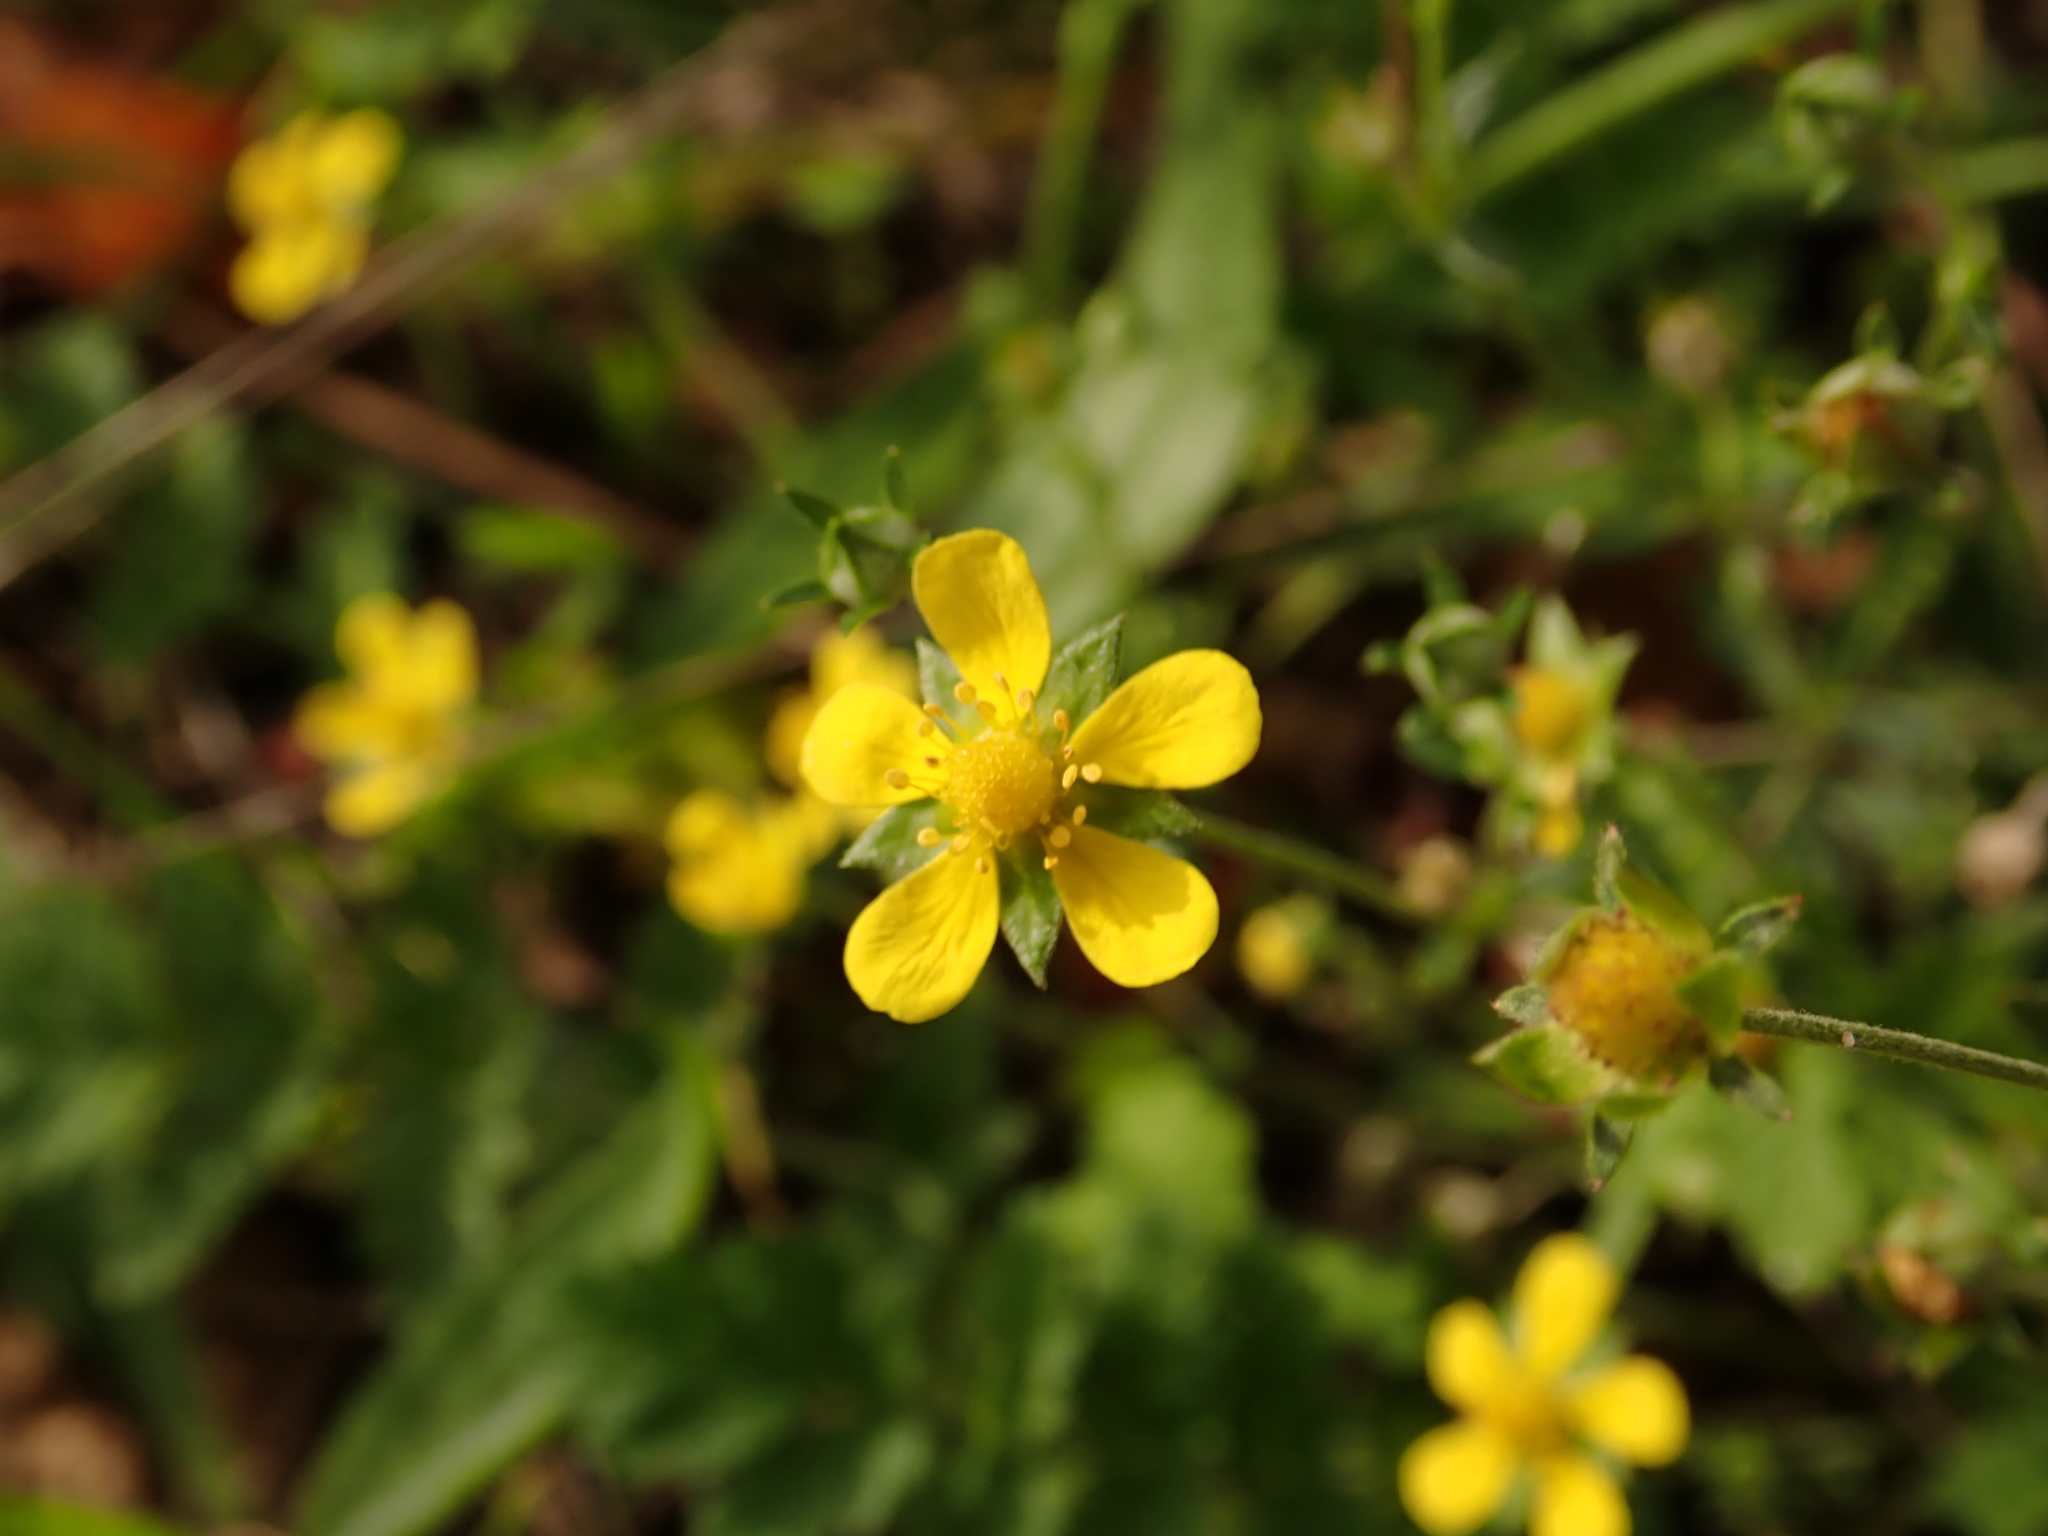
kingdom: Plantae
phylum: Tracheophyta
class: Magnoliopsida
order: Rosales
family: Rosaceae
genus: Potentilla
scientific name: Potentilla argentea
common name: Hoary cinquefoil
